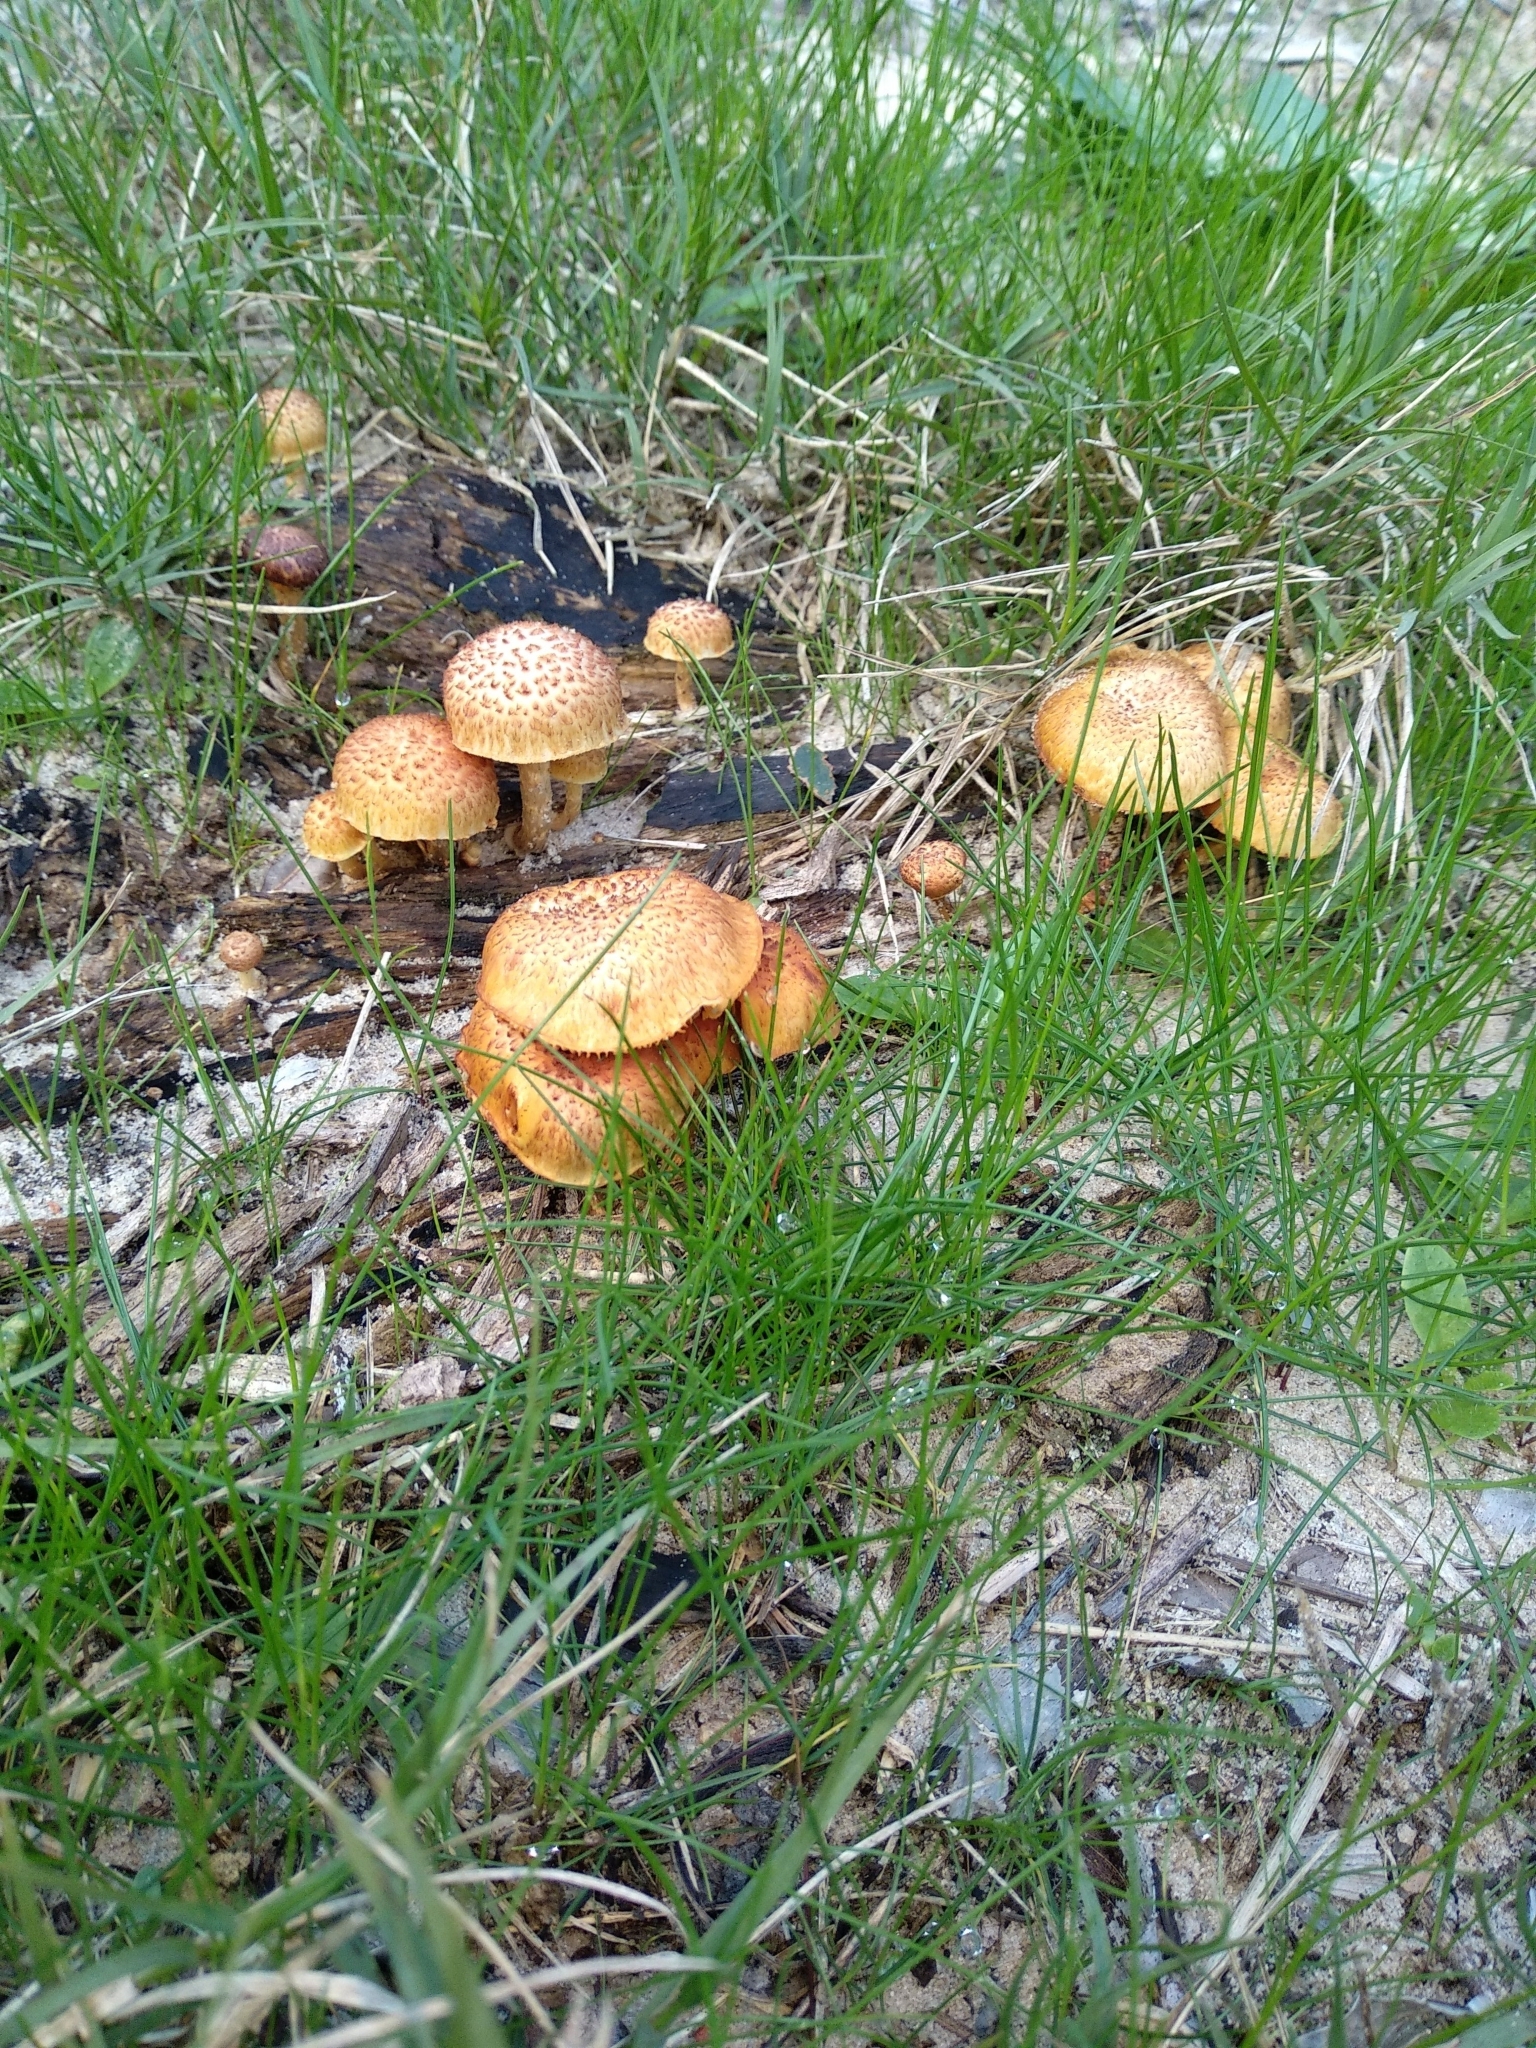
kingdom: Fungi
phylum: Basidiomycota
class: Agaricomycetes
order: Agaricales
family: Hymenogastraceae
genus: Gymnopilus
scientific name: Gymnopilus fulvosquamulosus
